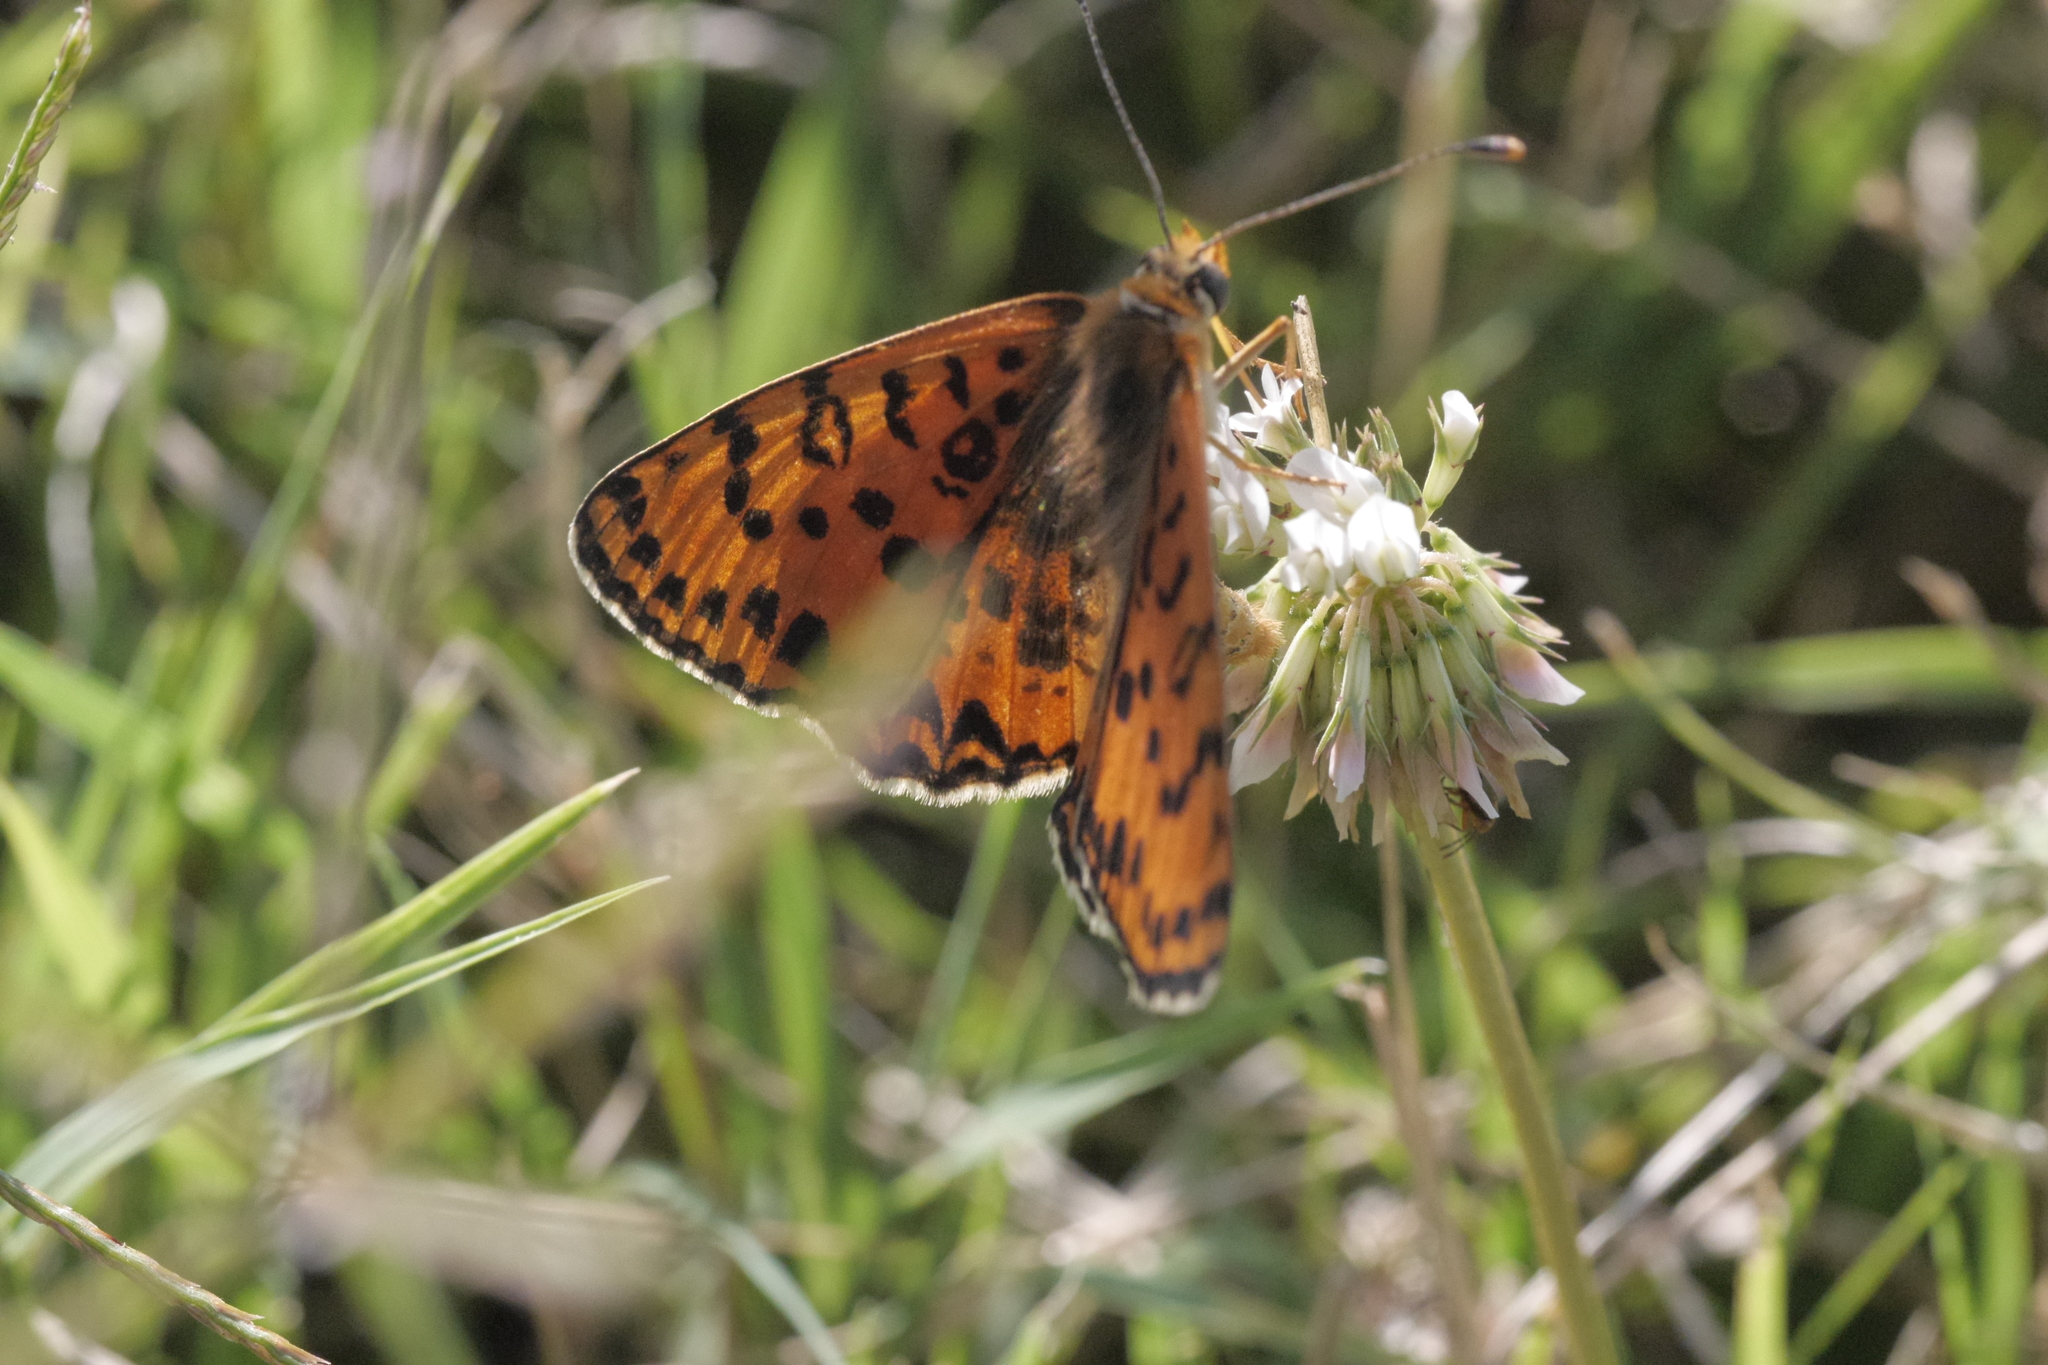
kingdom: Animalia
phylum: Arthropoda
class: Insecta
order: Lepidoptera
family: Nymphalidae
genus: Melitaea
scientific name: Melitaea didyma
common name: Spotted fritillary
